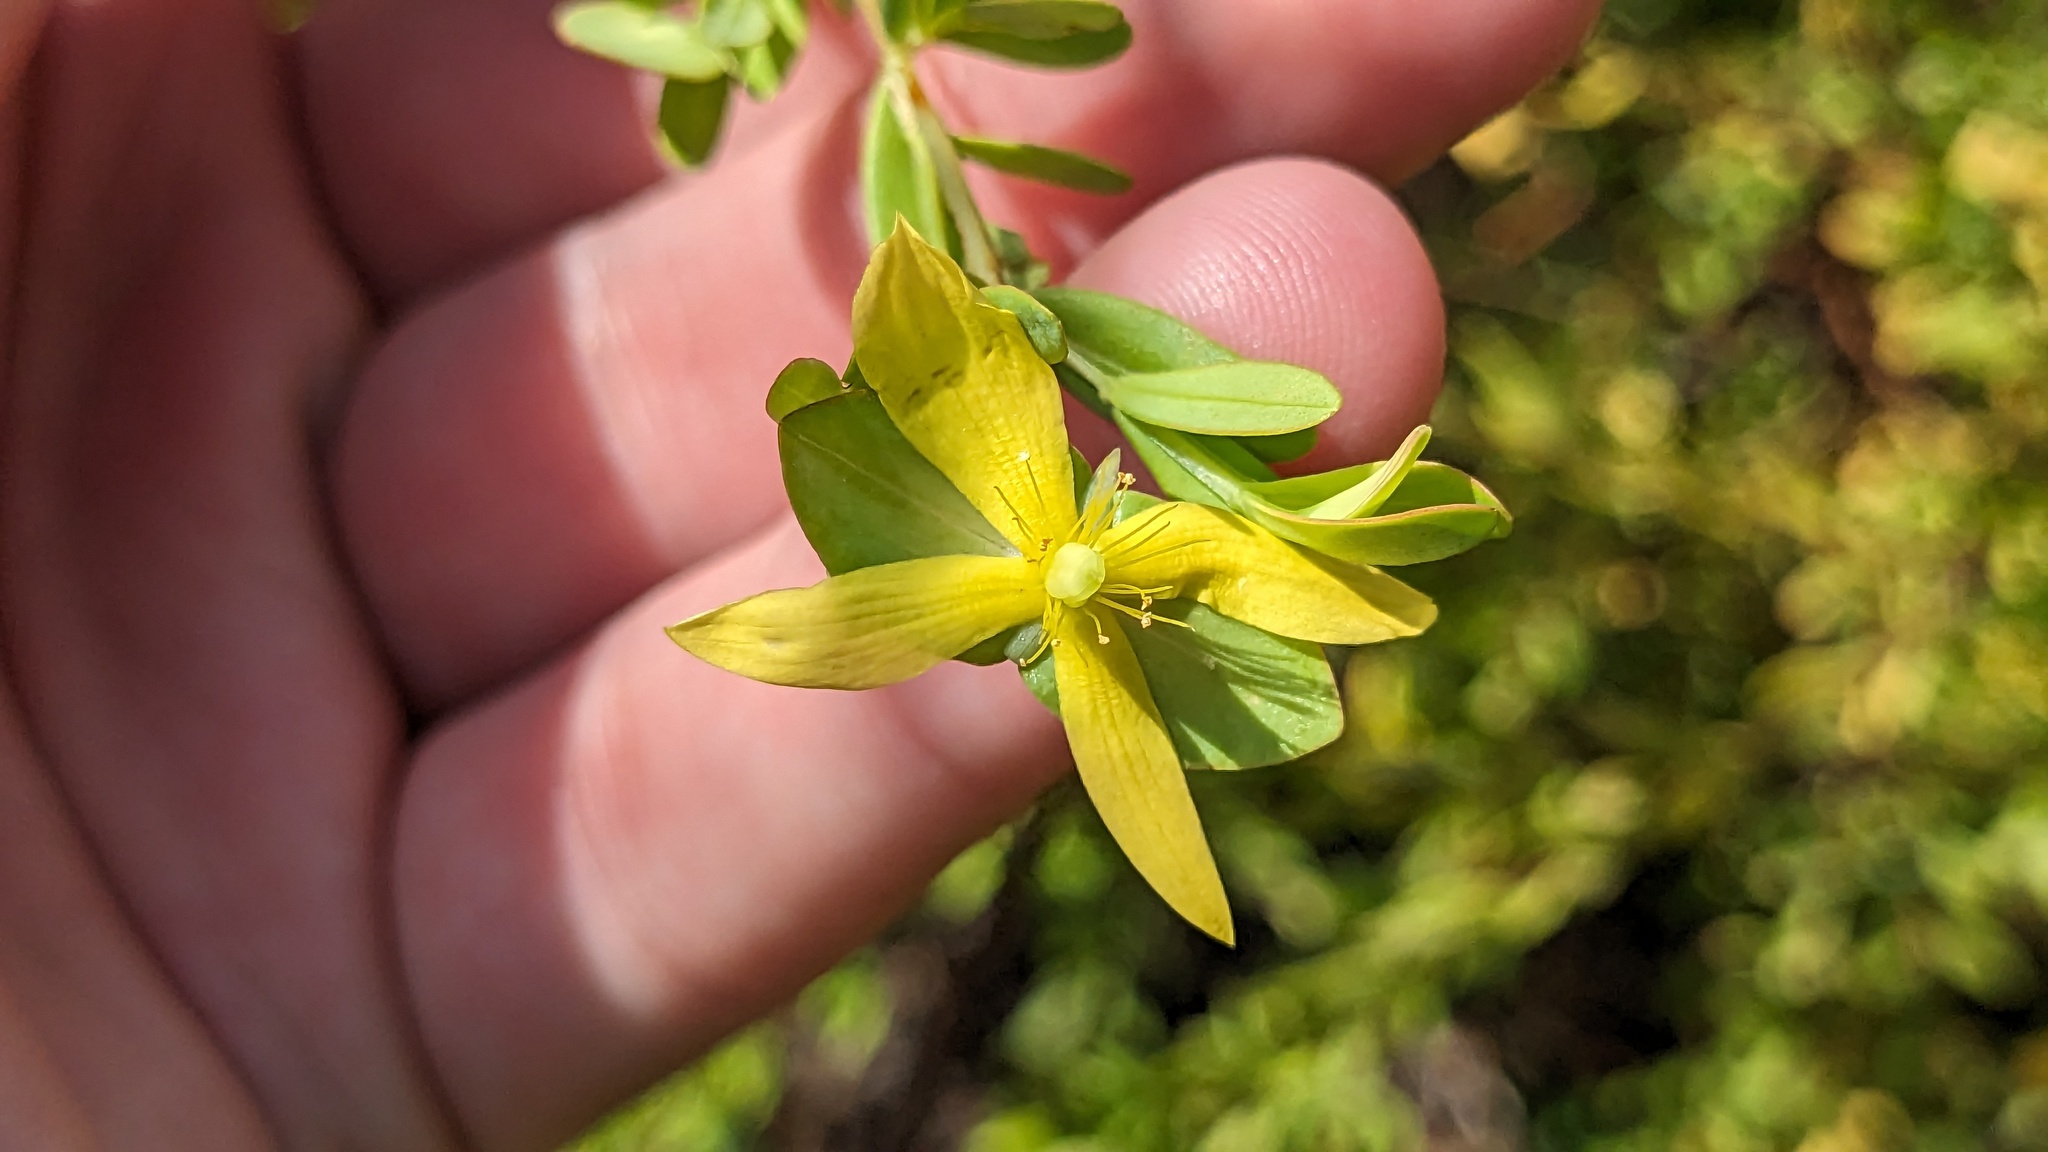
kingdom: Plantae
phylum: Tracheophyta
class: Magnoliopsida
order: Malpighiales
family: Hypericaceae
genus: Hypericum
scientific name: Hypericum hypericoides
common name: St. andrew's cross
